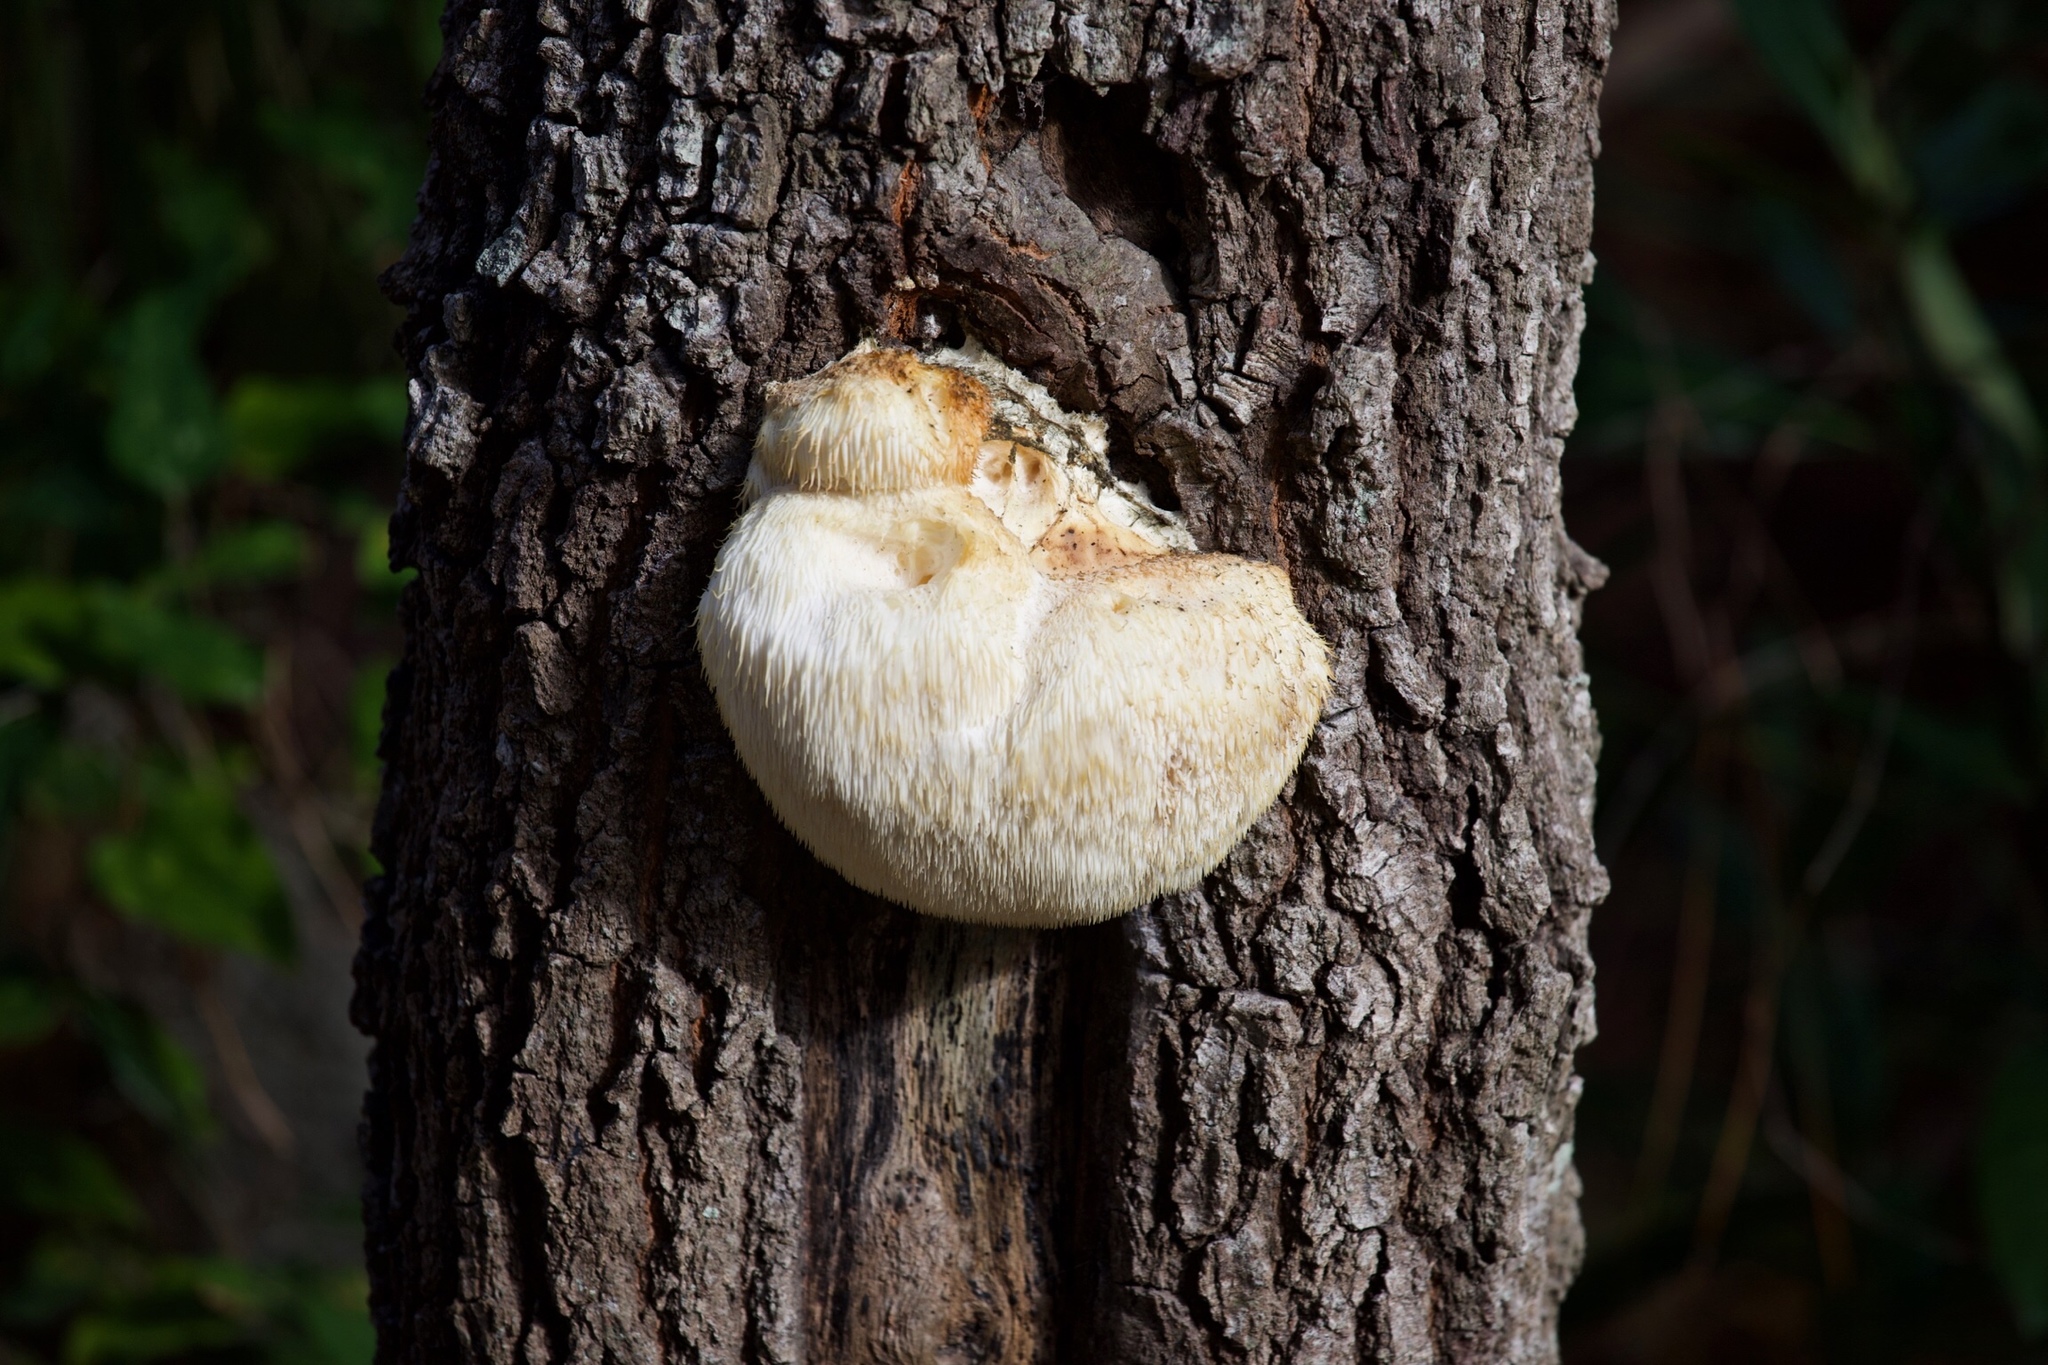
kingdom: Fungi
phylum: Basidiomycota
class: Agaricomycetes
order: Russulales
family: Hericiaceae
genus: Hericium
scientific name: Hericium erinaceus
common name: Bearded tooth
